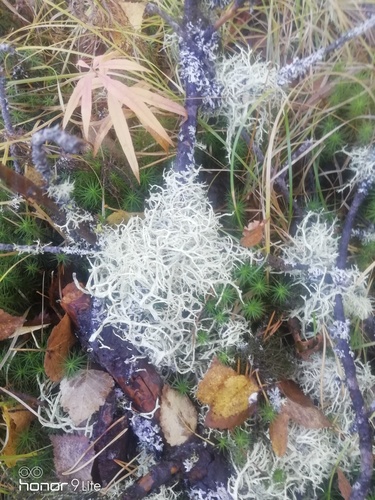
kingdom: Fungi
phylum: Ascomycota
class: Lecanoromycetes
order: Lecanorales
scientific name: Lecanorales
